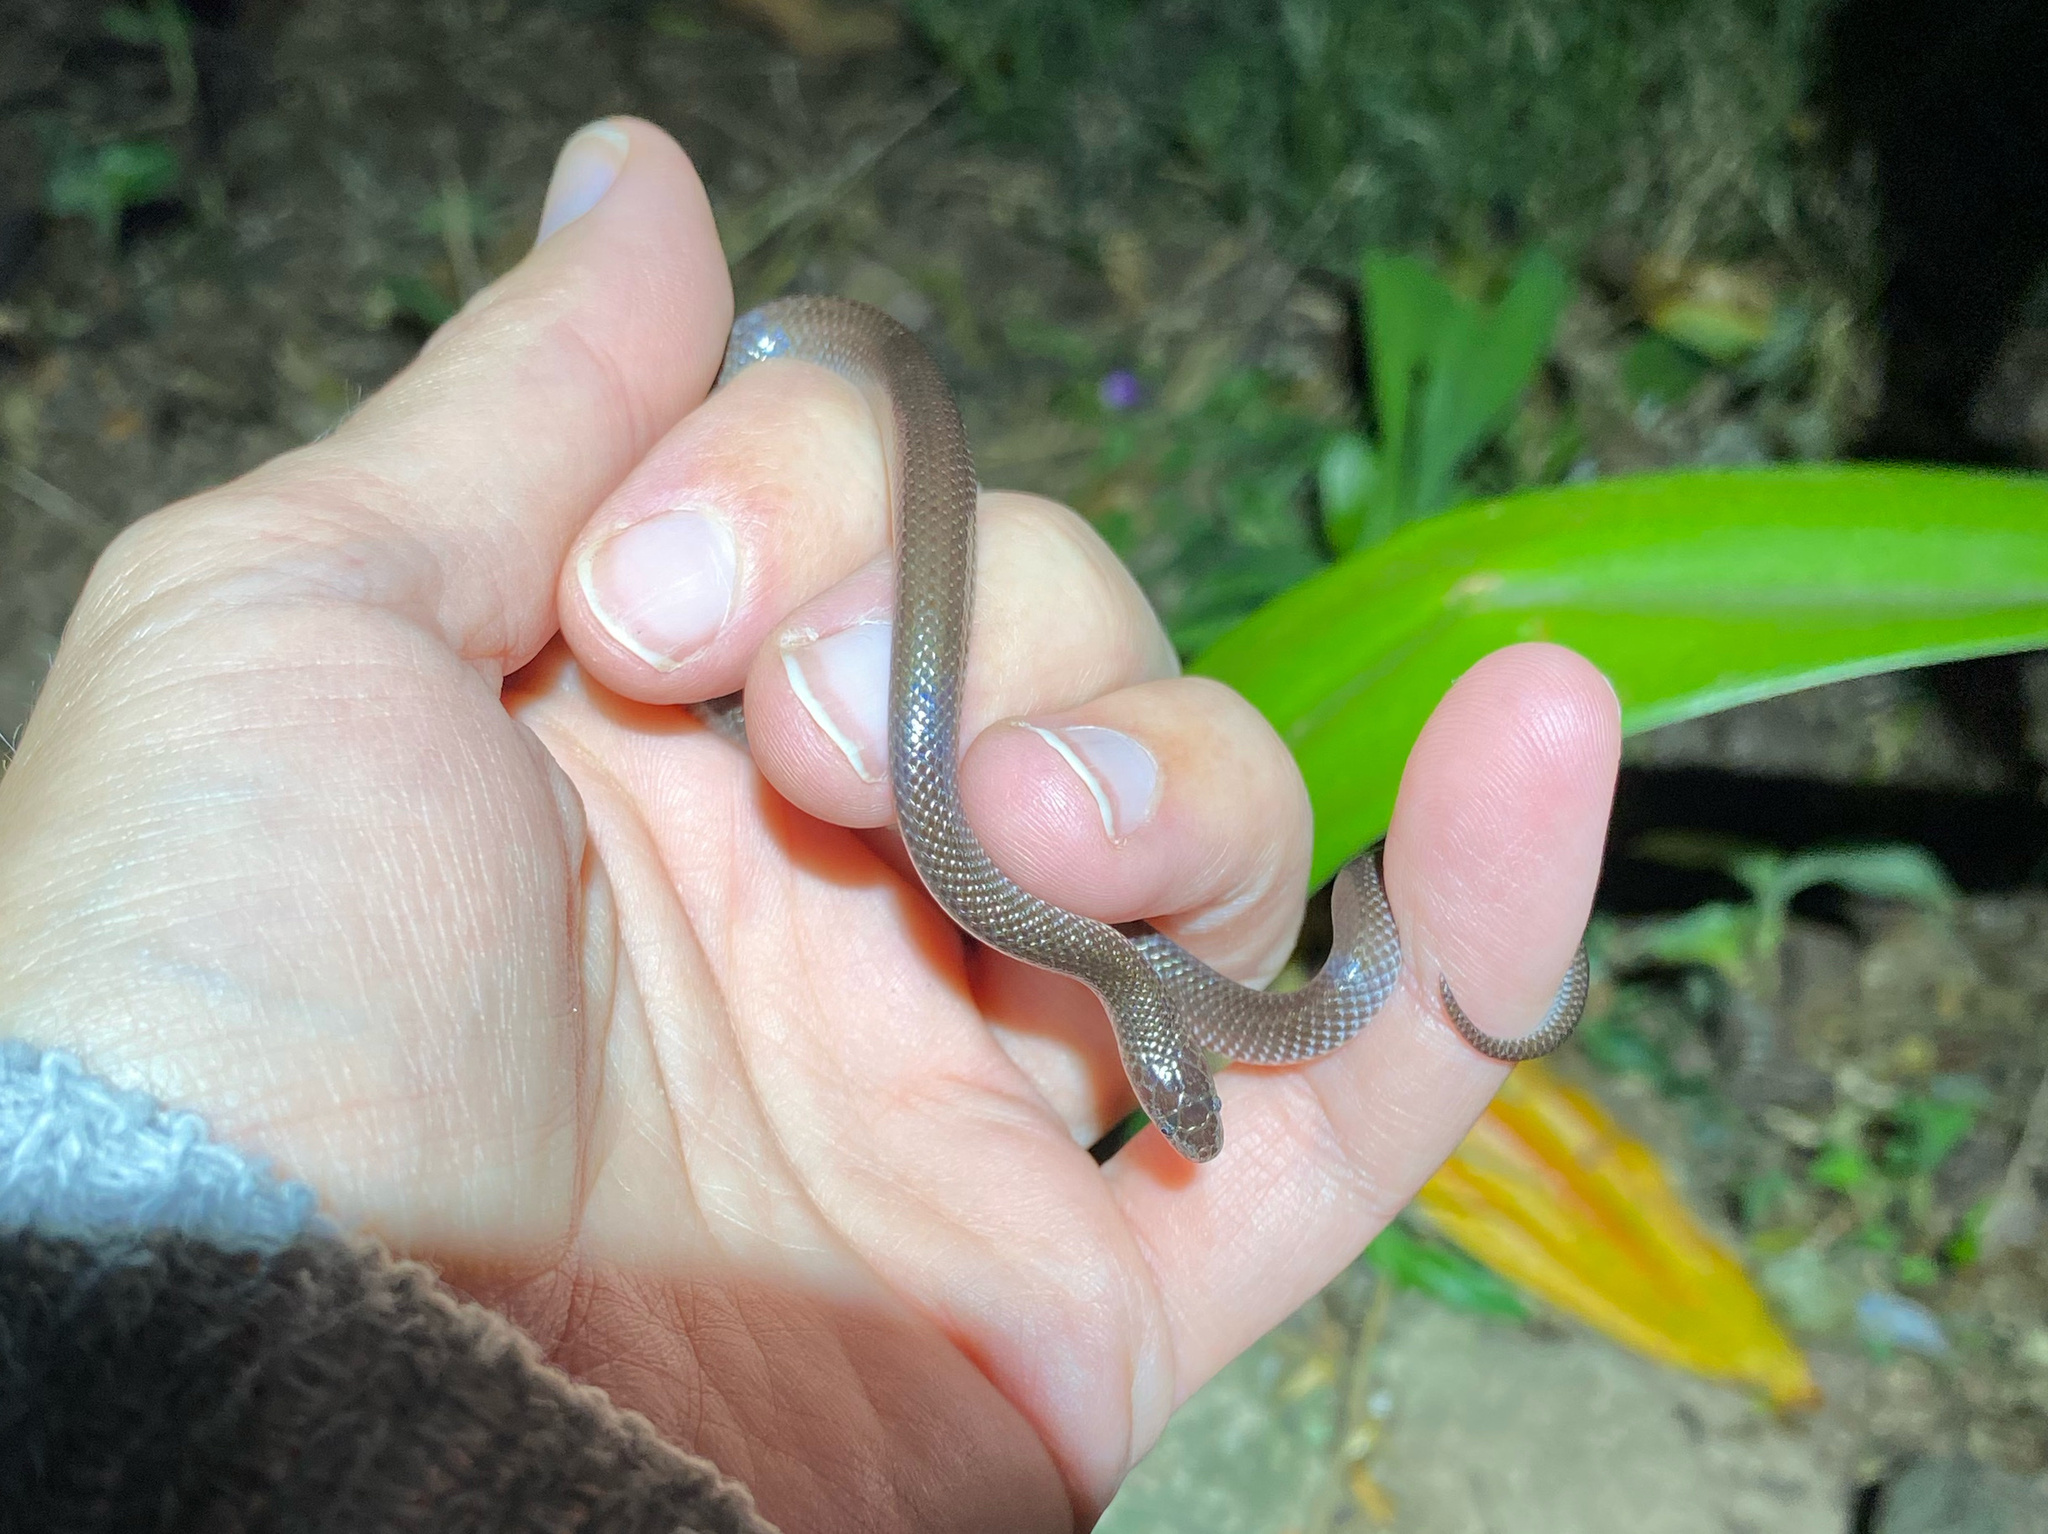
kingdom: Animalia
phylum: Chordata
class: Squamata
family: Lamprophiidae
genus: Lycophidion
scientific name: Lycophidion capense
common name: Cape wolf snake
